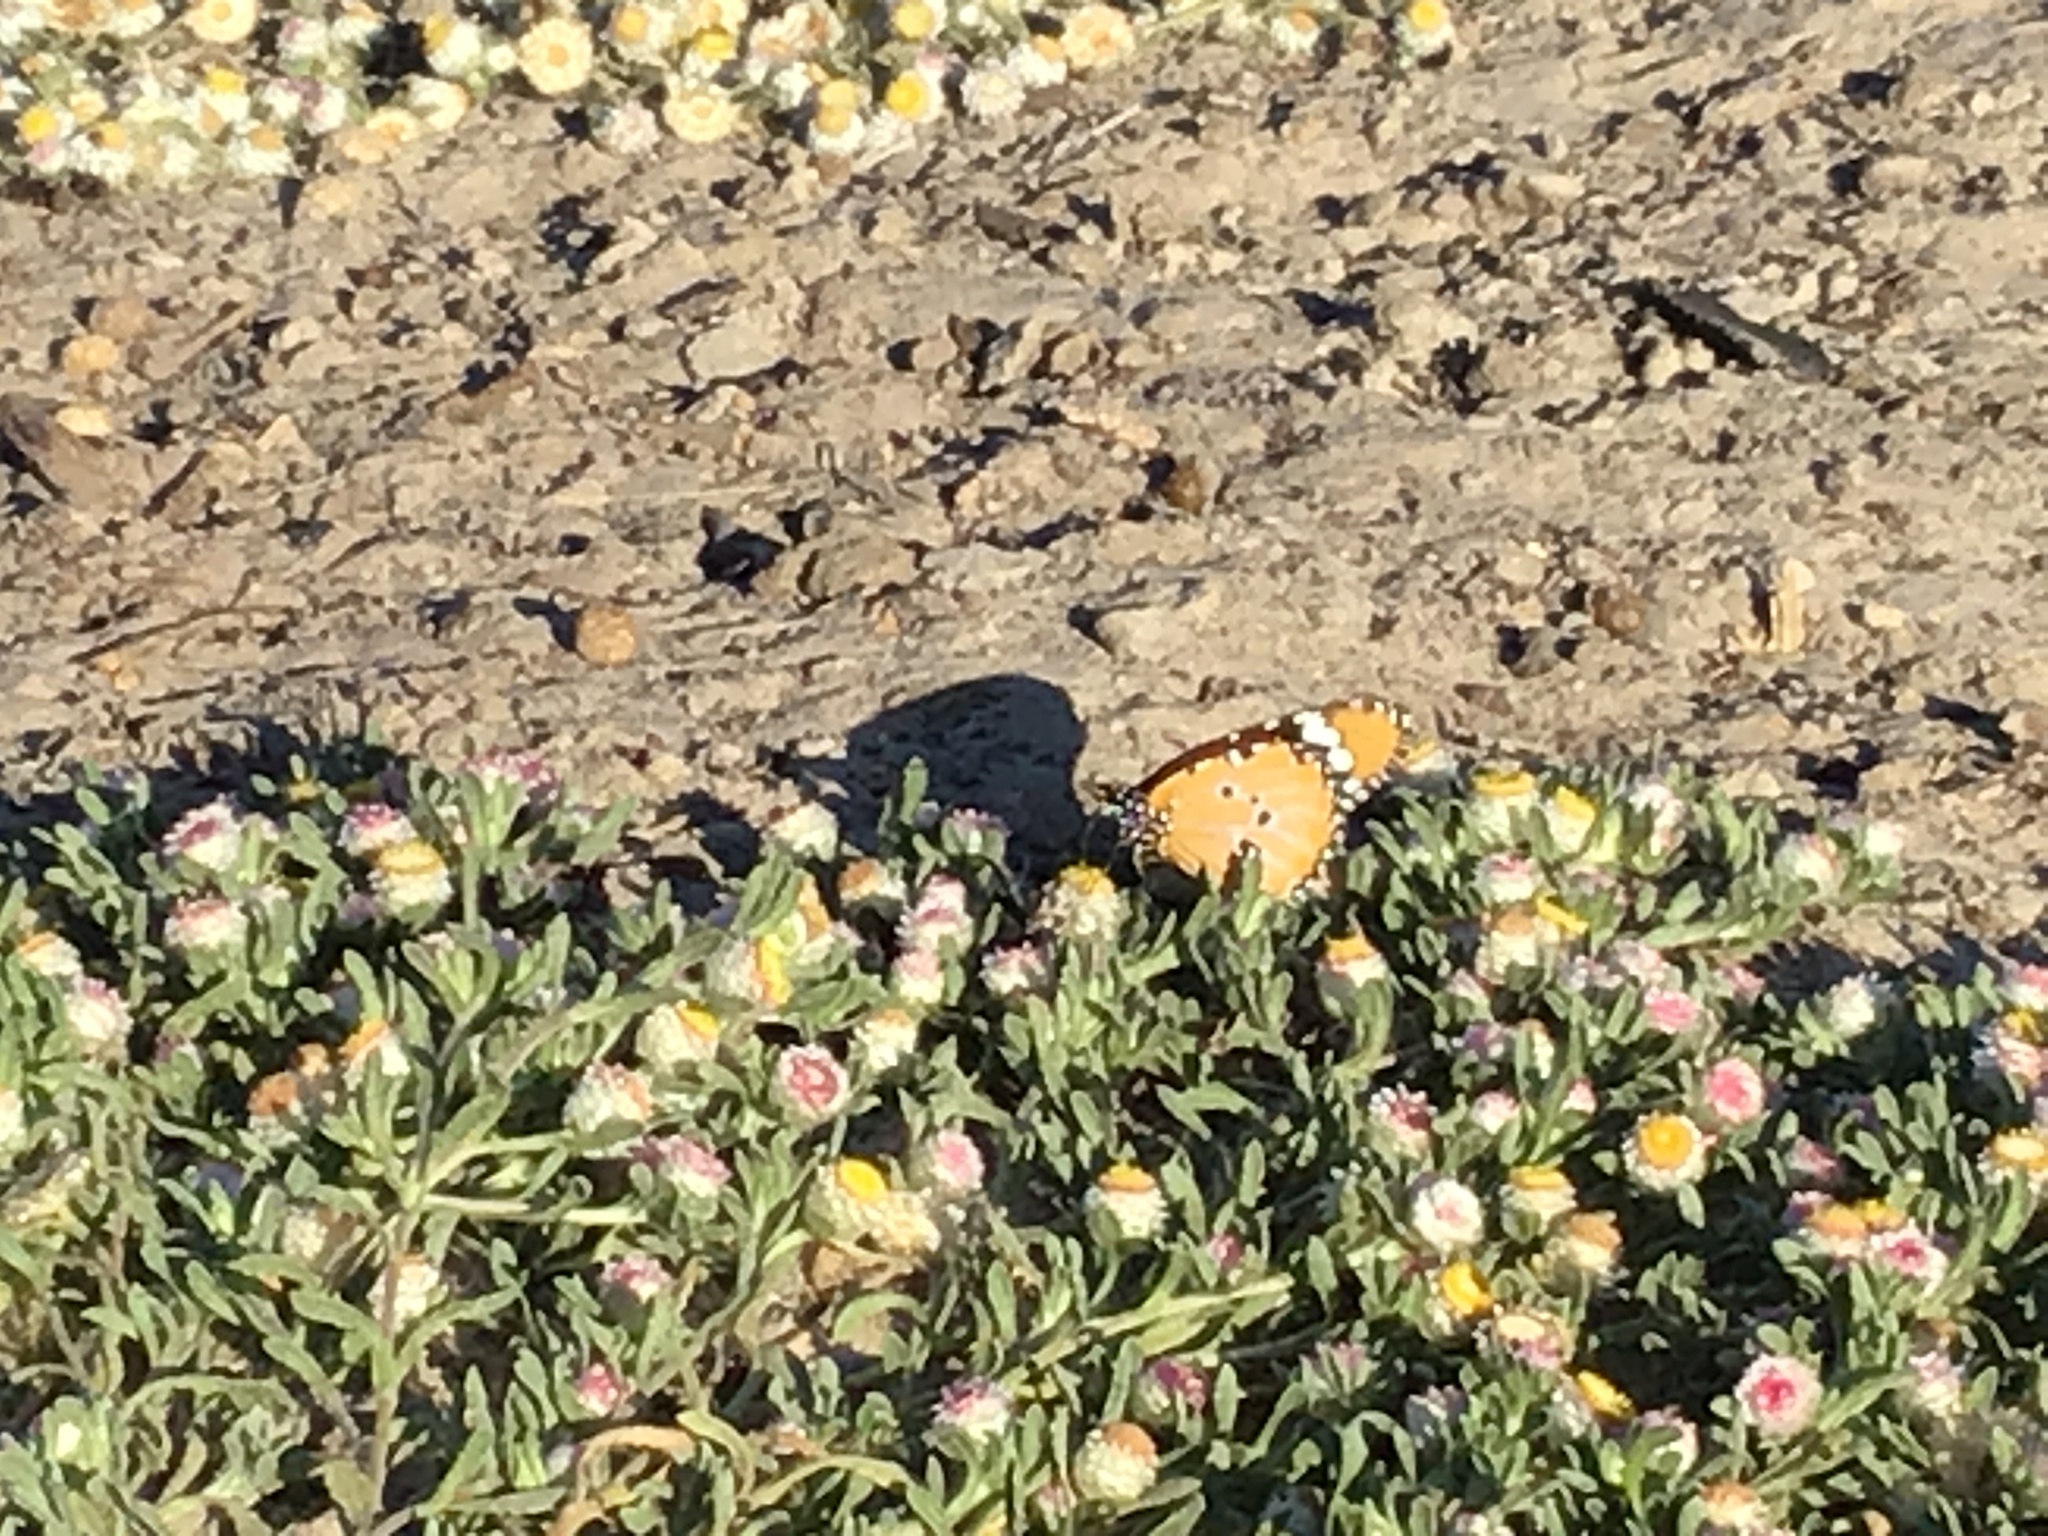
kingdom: Animalia
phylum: Arthropoda
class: Insecta
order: Lepidoptera
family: Nymphalidae
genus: Danaus
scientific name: Danaus chrysippus
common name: Plain tiger
